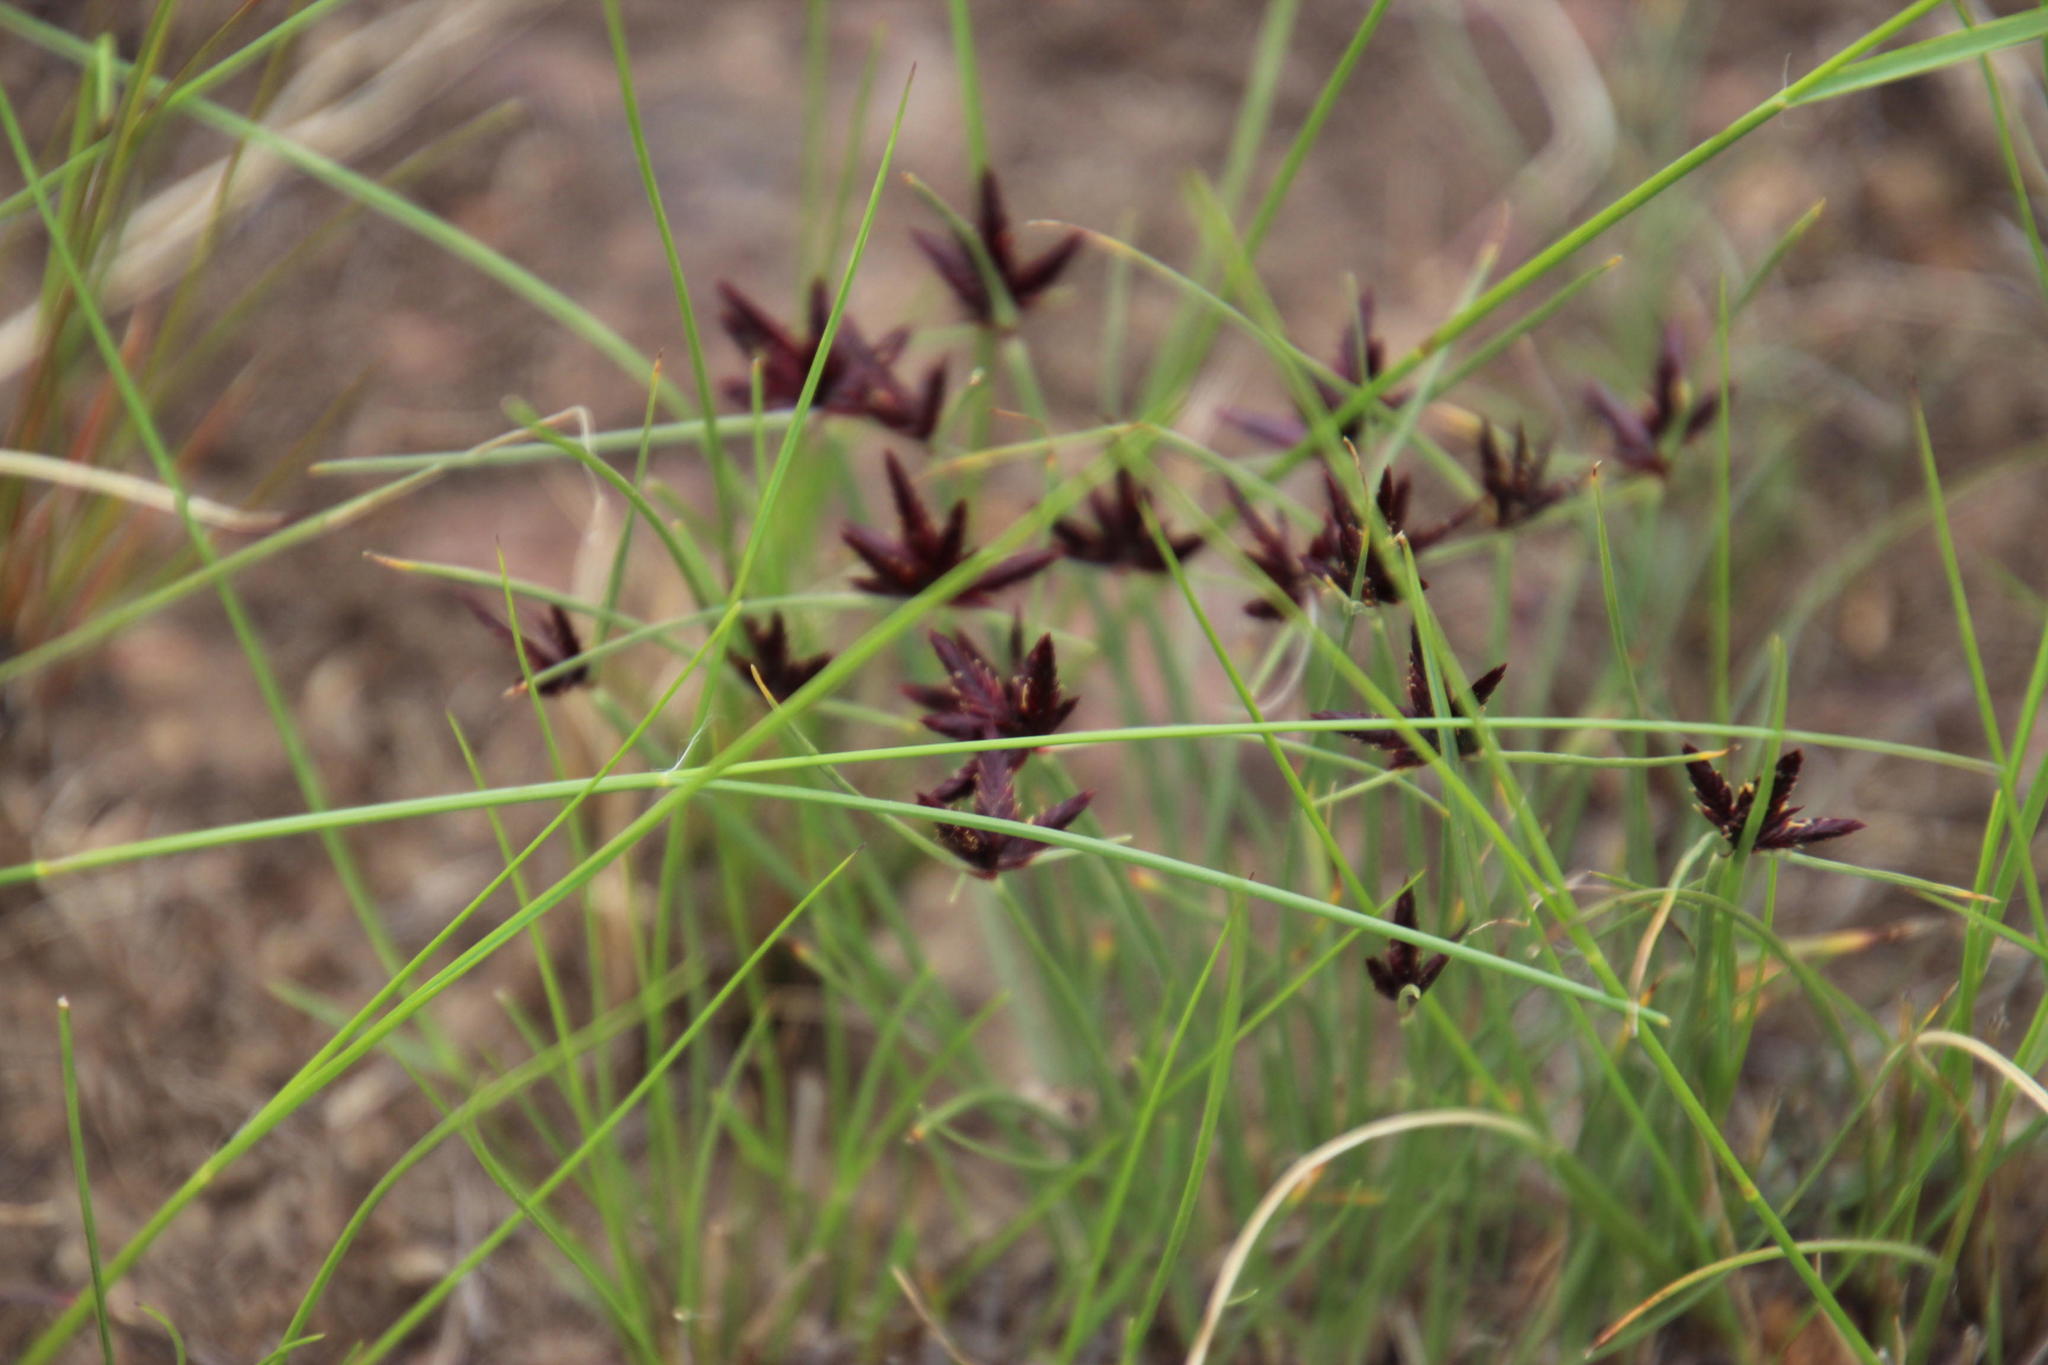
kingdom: Plantae
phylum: Tracheophyta
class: Liliopsida
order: Poales
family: Cyperaceae
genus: Cyperus
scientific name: Cyperus semitrifidus
